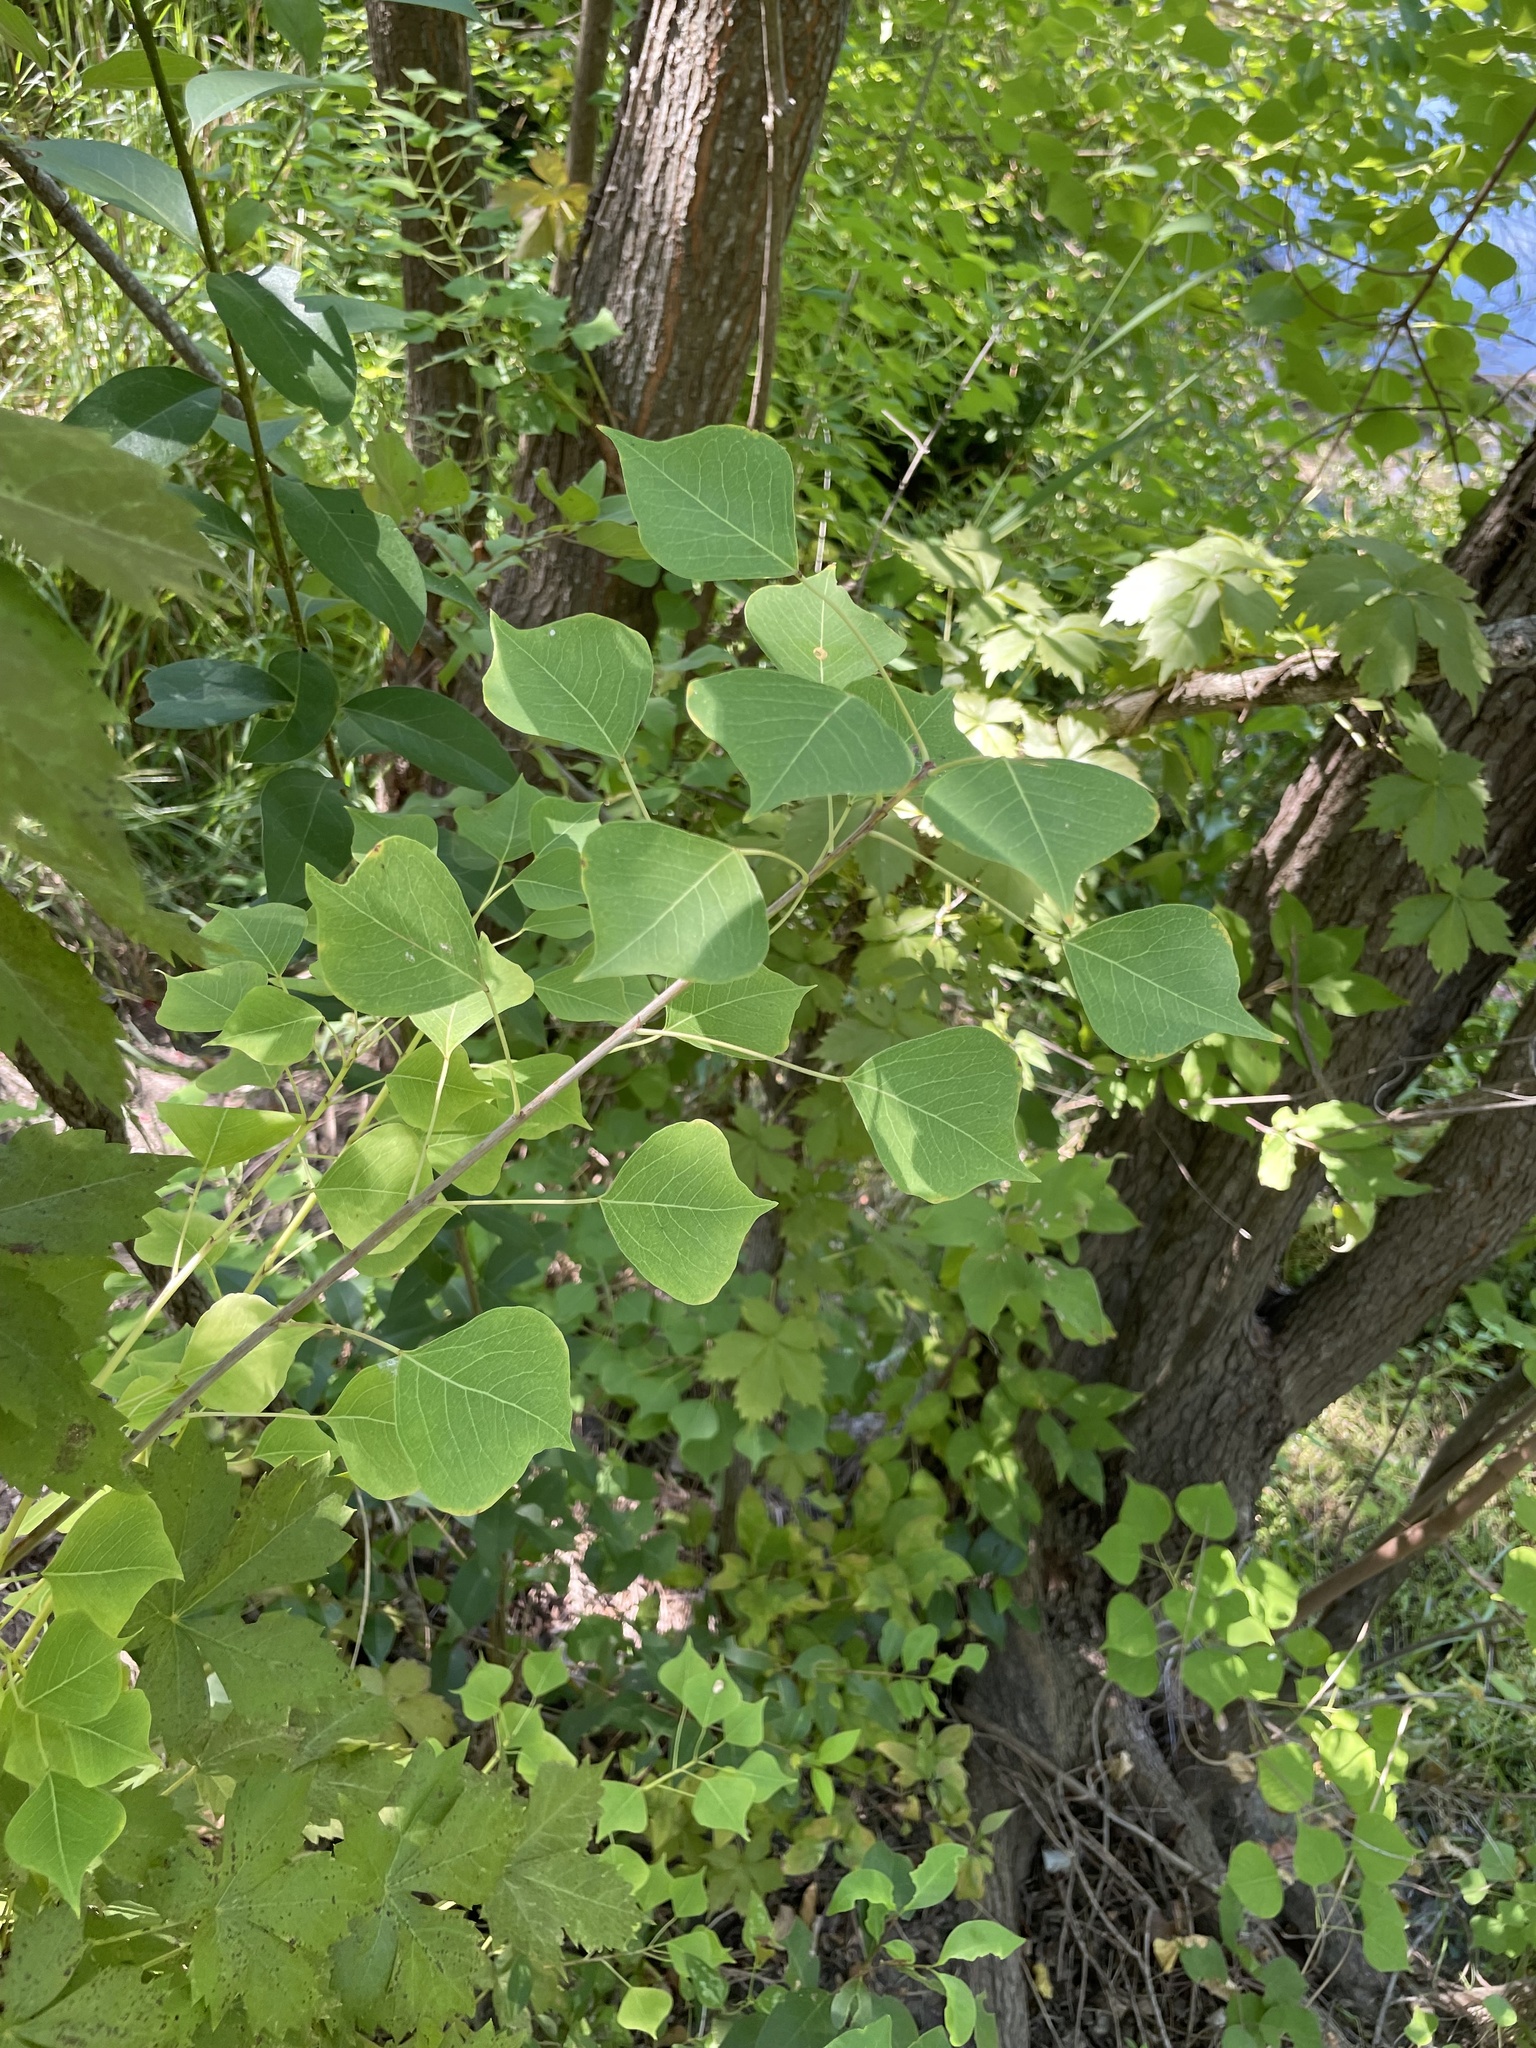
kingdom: Plantae
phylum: Tracheophyta
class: Magnoliopsida
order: Malpighiales
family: Euphorbiaceae
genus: Triadica
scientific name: Triadica sebifera
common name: Chinese tallow
